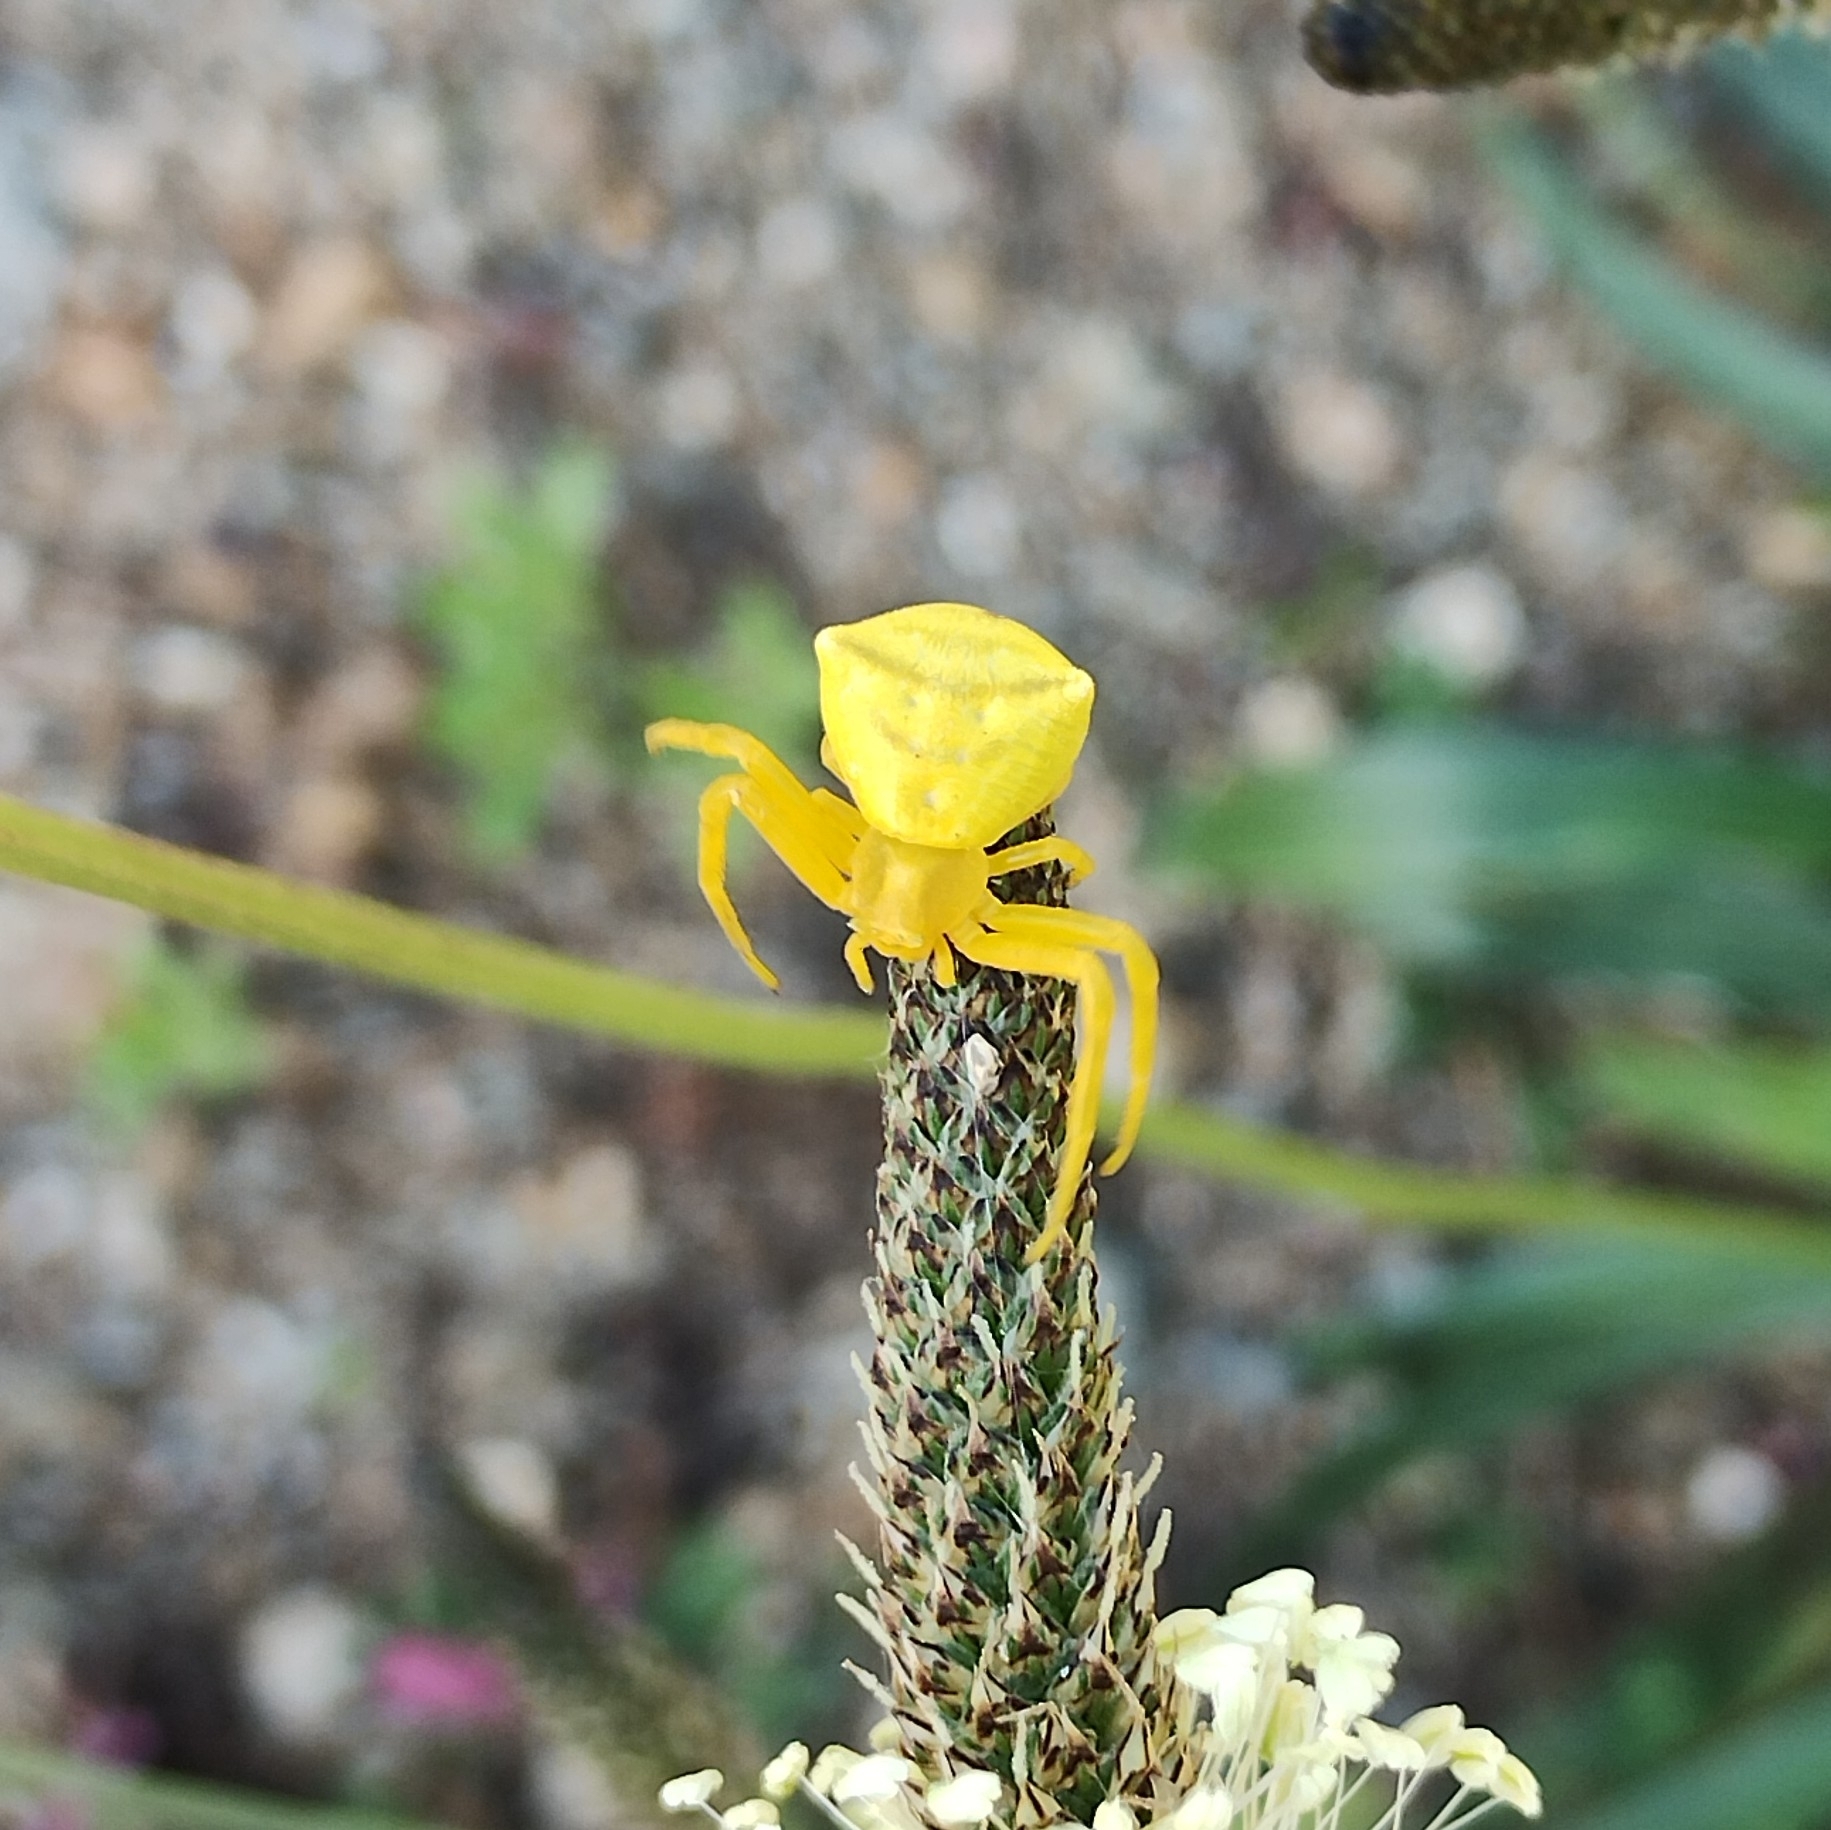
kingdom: Animalia
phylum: Arthropoda
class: Arachnida
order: Araneae
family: Thomisidae
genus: Thomisus
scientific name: Thomisus onustus
